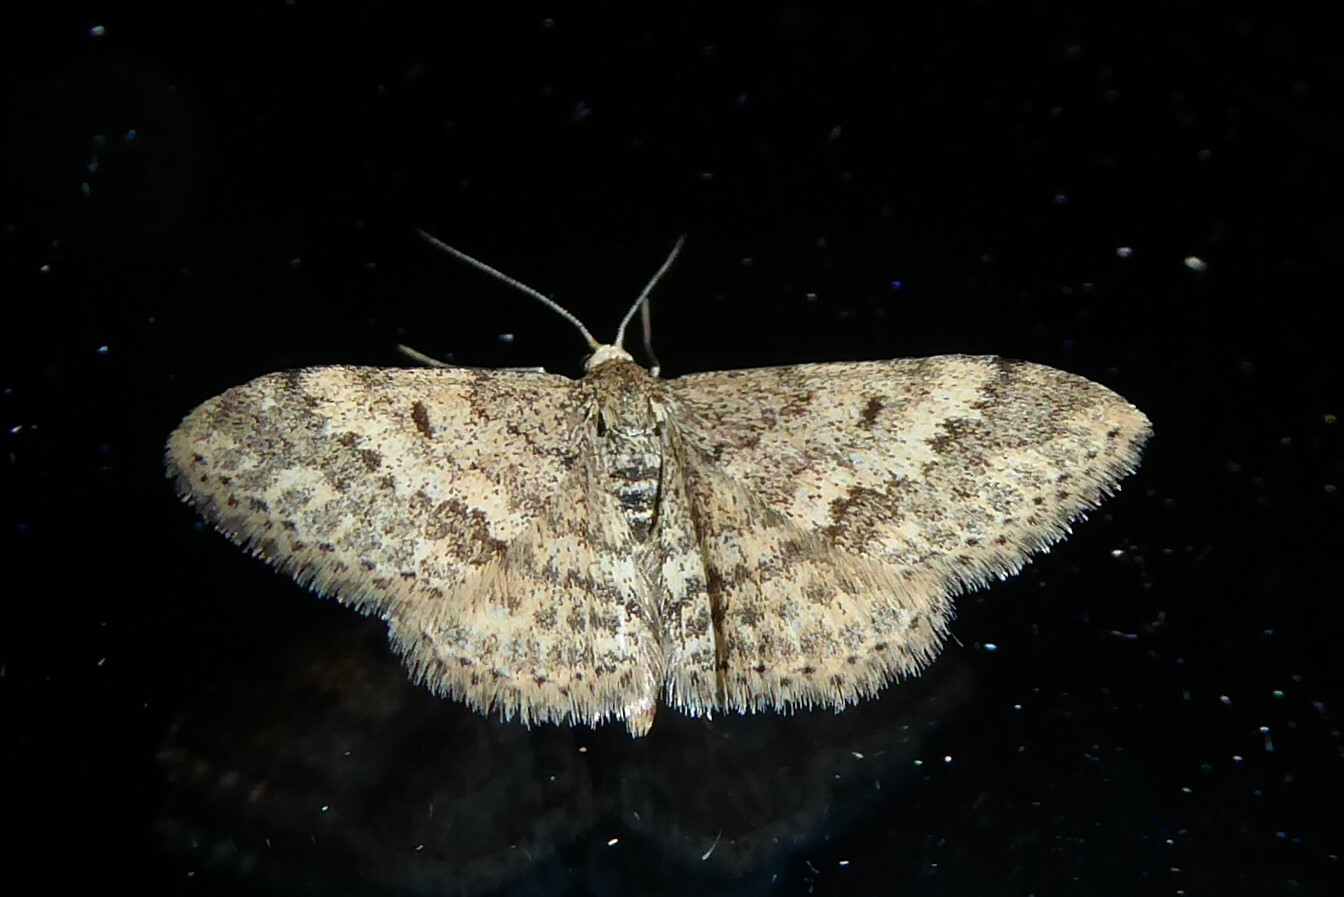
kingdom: Animalia
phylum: Arthropoda
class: Insecta
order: Lepidoptera
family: Geometridae
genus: Scopula
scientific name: Scopula rubraria
